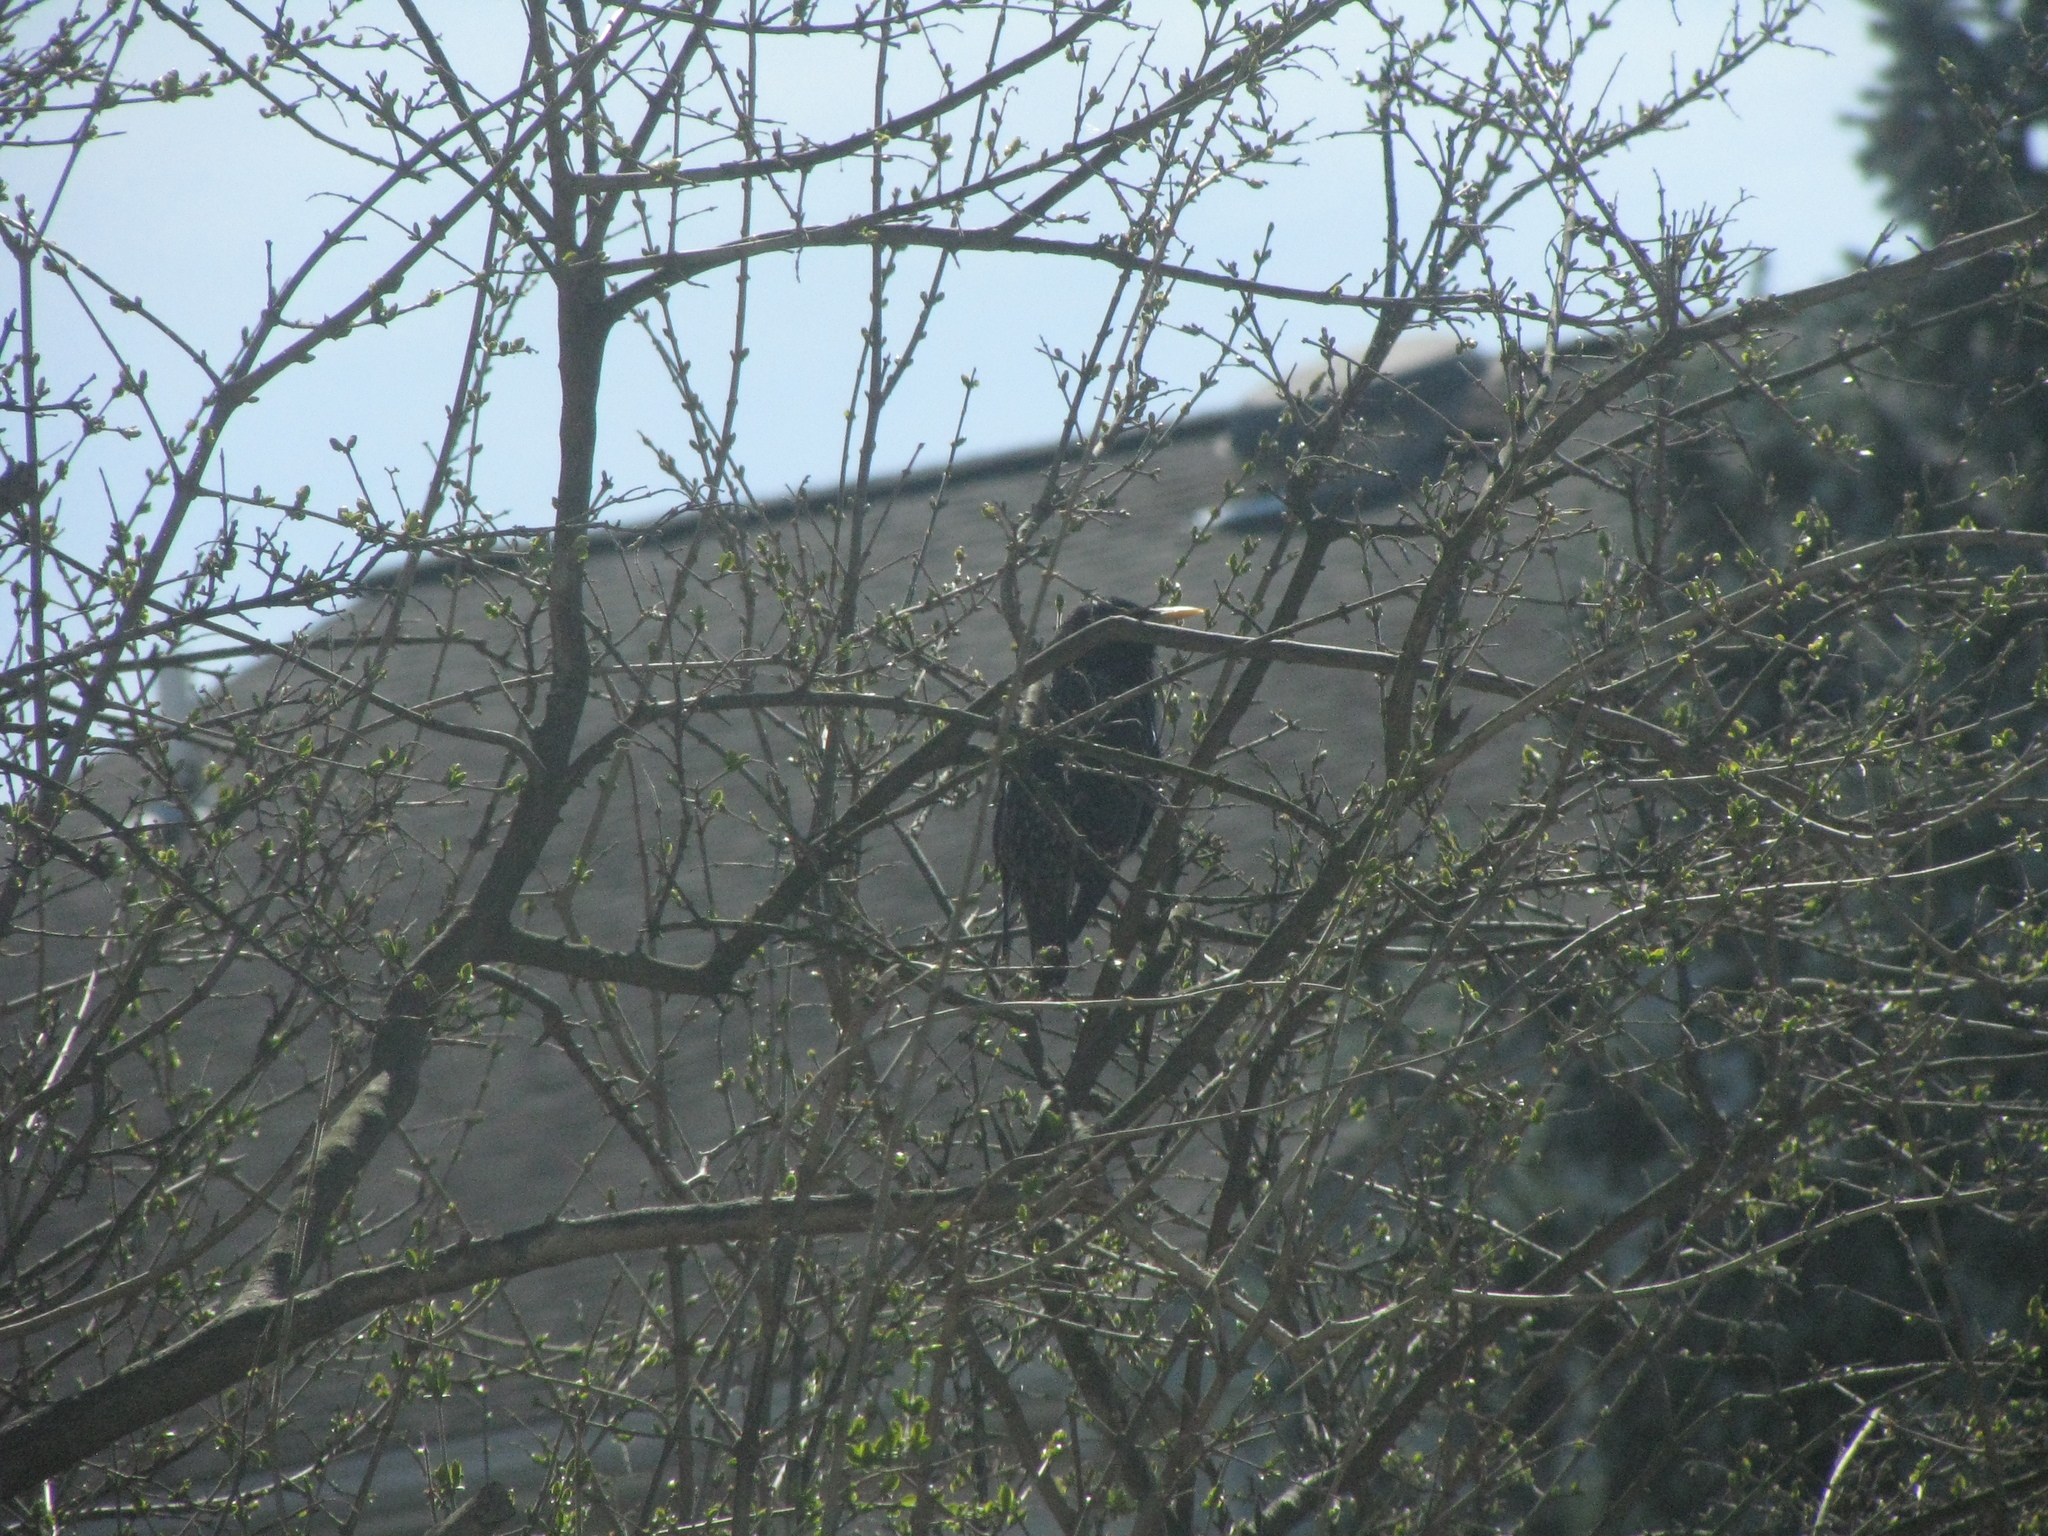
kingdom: Animalia
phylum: Chordata
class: Aves
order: Passeriformes
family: Sturnidae
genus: Sturnus
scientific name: Sturnus vulgaris
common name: Common starling
